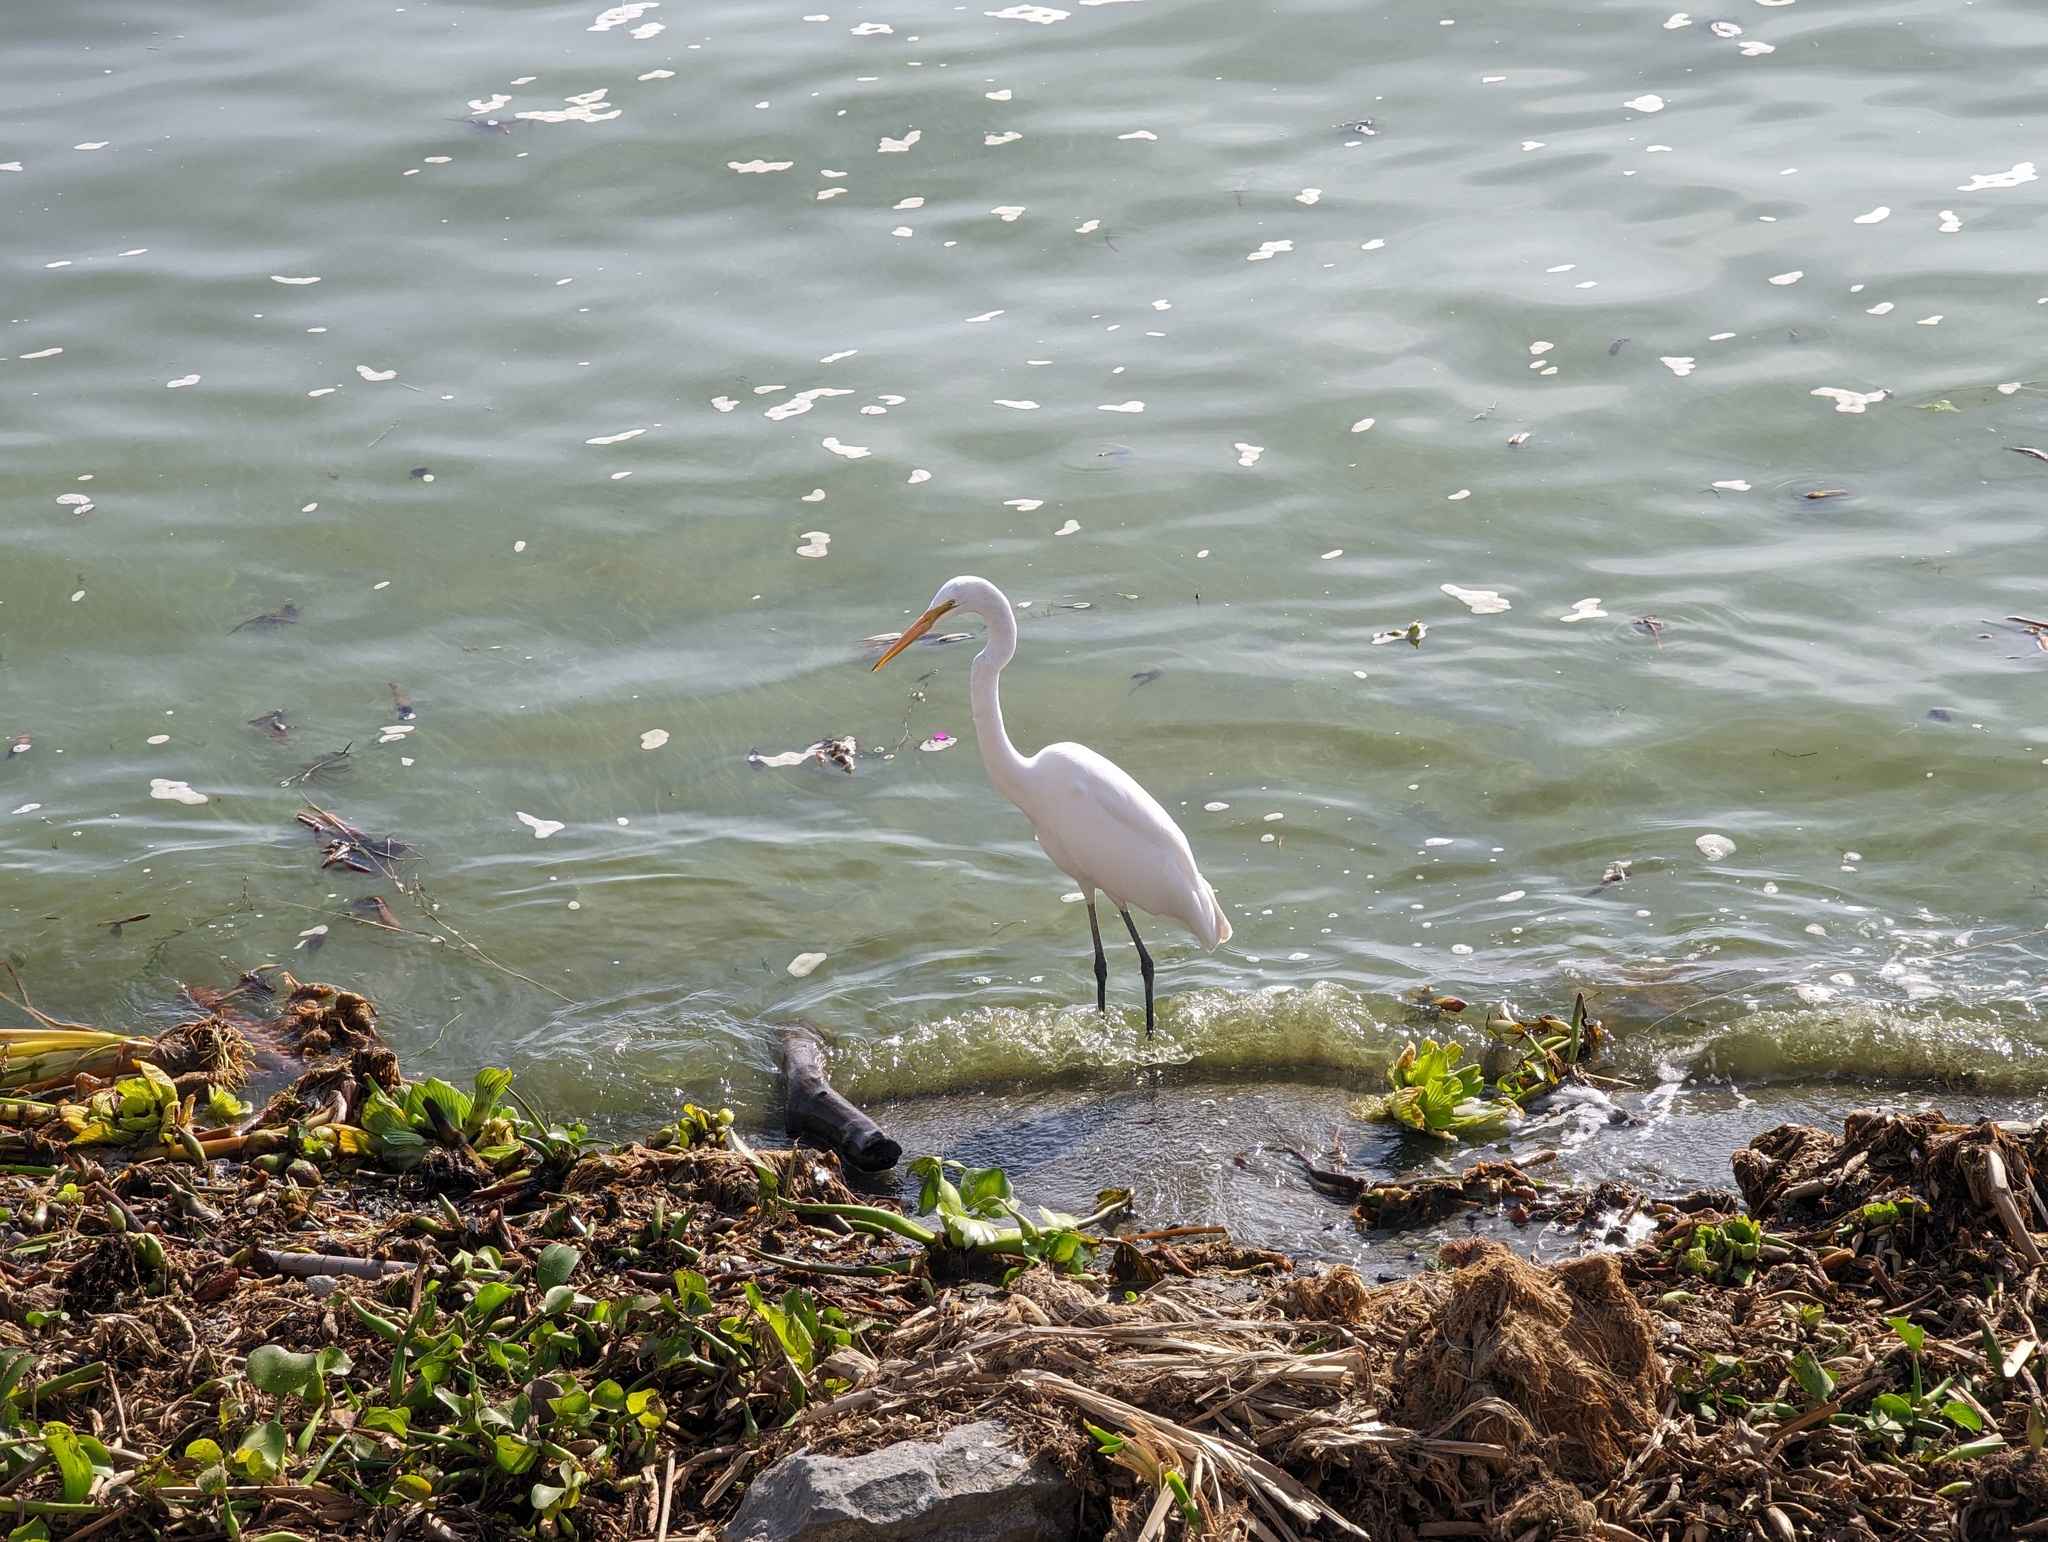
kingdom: Animalia
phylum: Chordata
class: Aves
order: Pelecaniformes
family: Ardeidae
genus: Ardea
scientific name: Ardea alba
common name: Great egret
